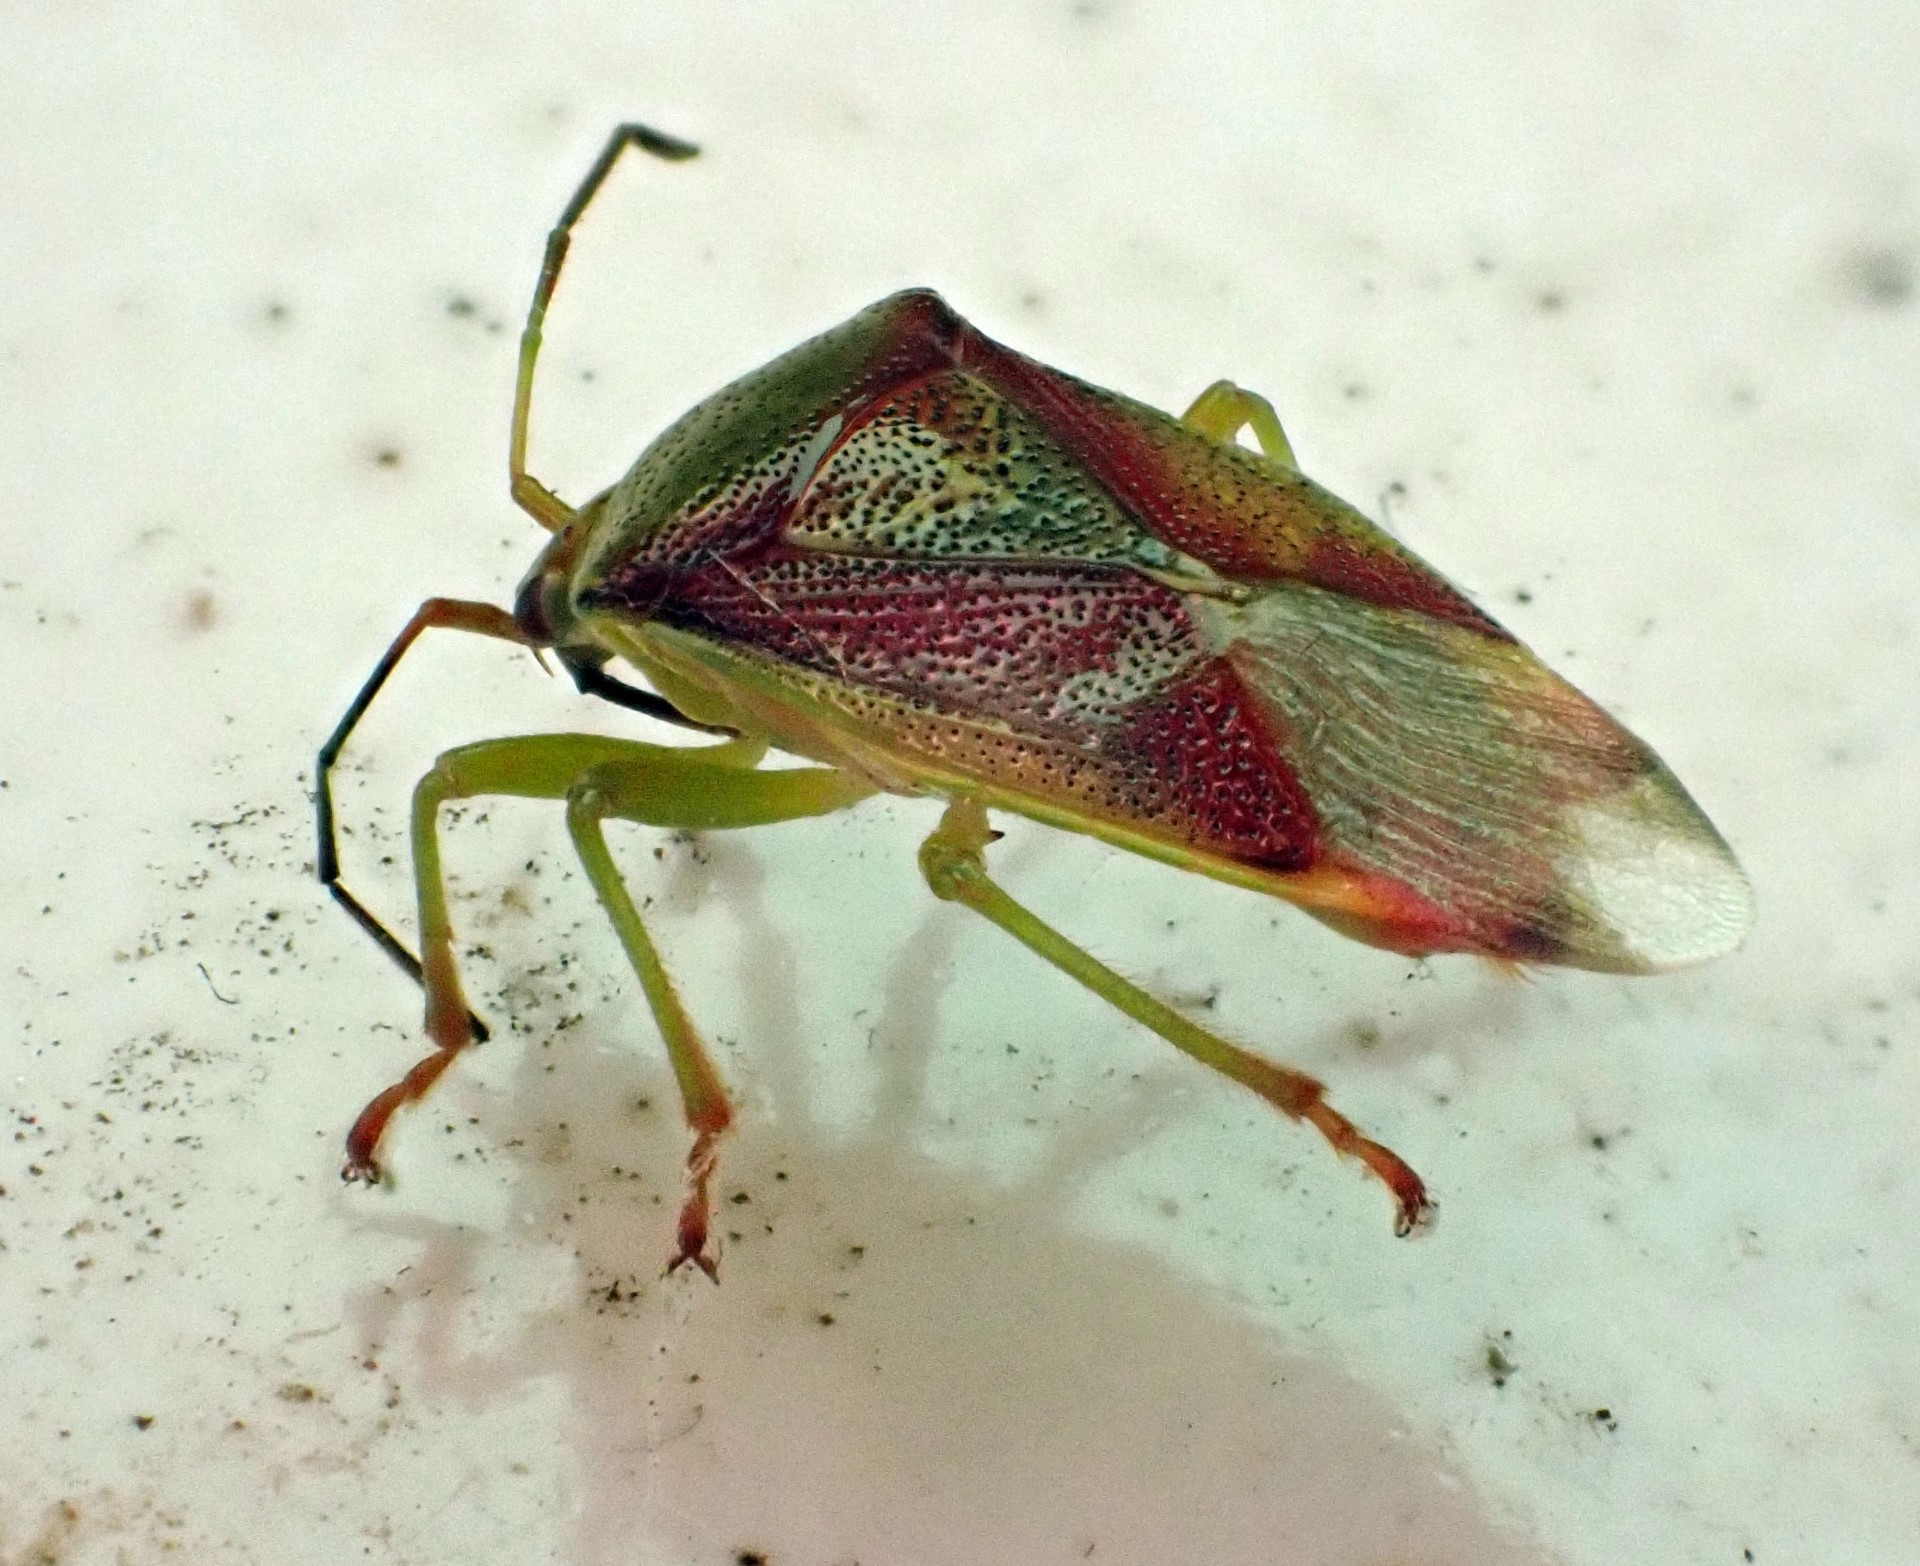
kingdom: Animalia
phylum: Arthropoda
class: Insecta
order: Hemiptera
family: Acanthosomatidae
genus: Elasmostethus
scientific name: Elasmostethus interstinctus
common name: Birch shieldbug
